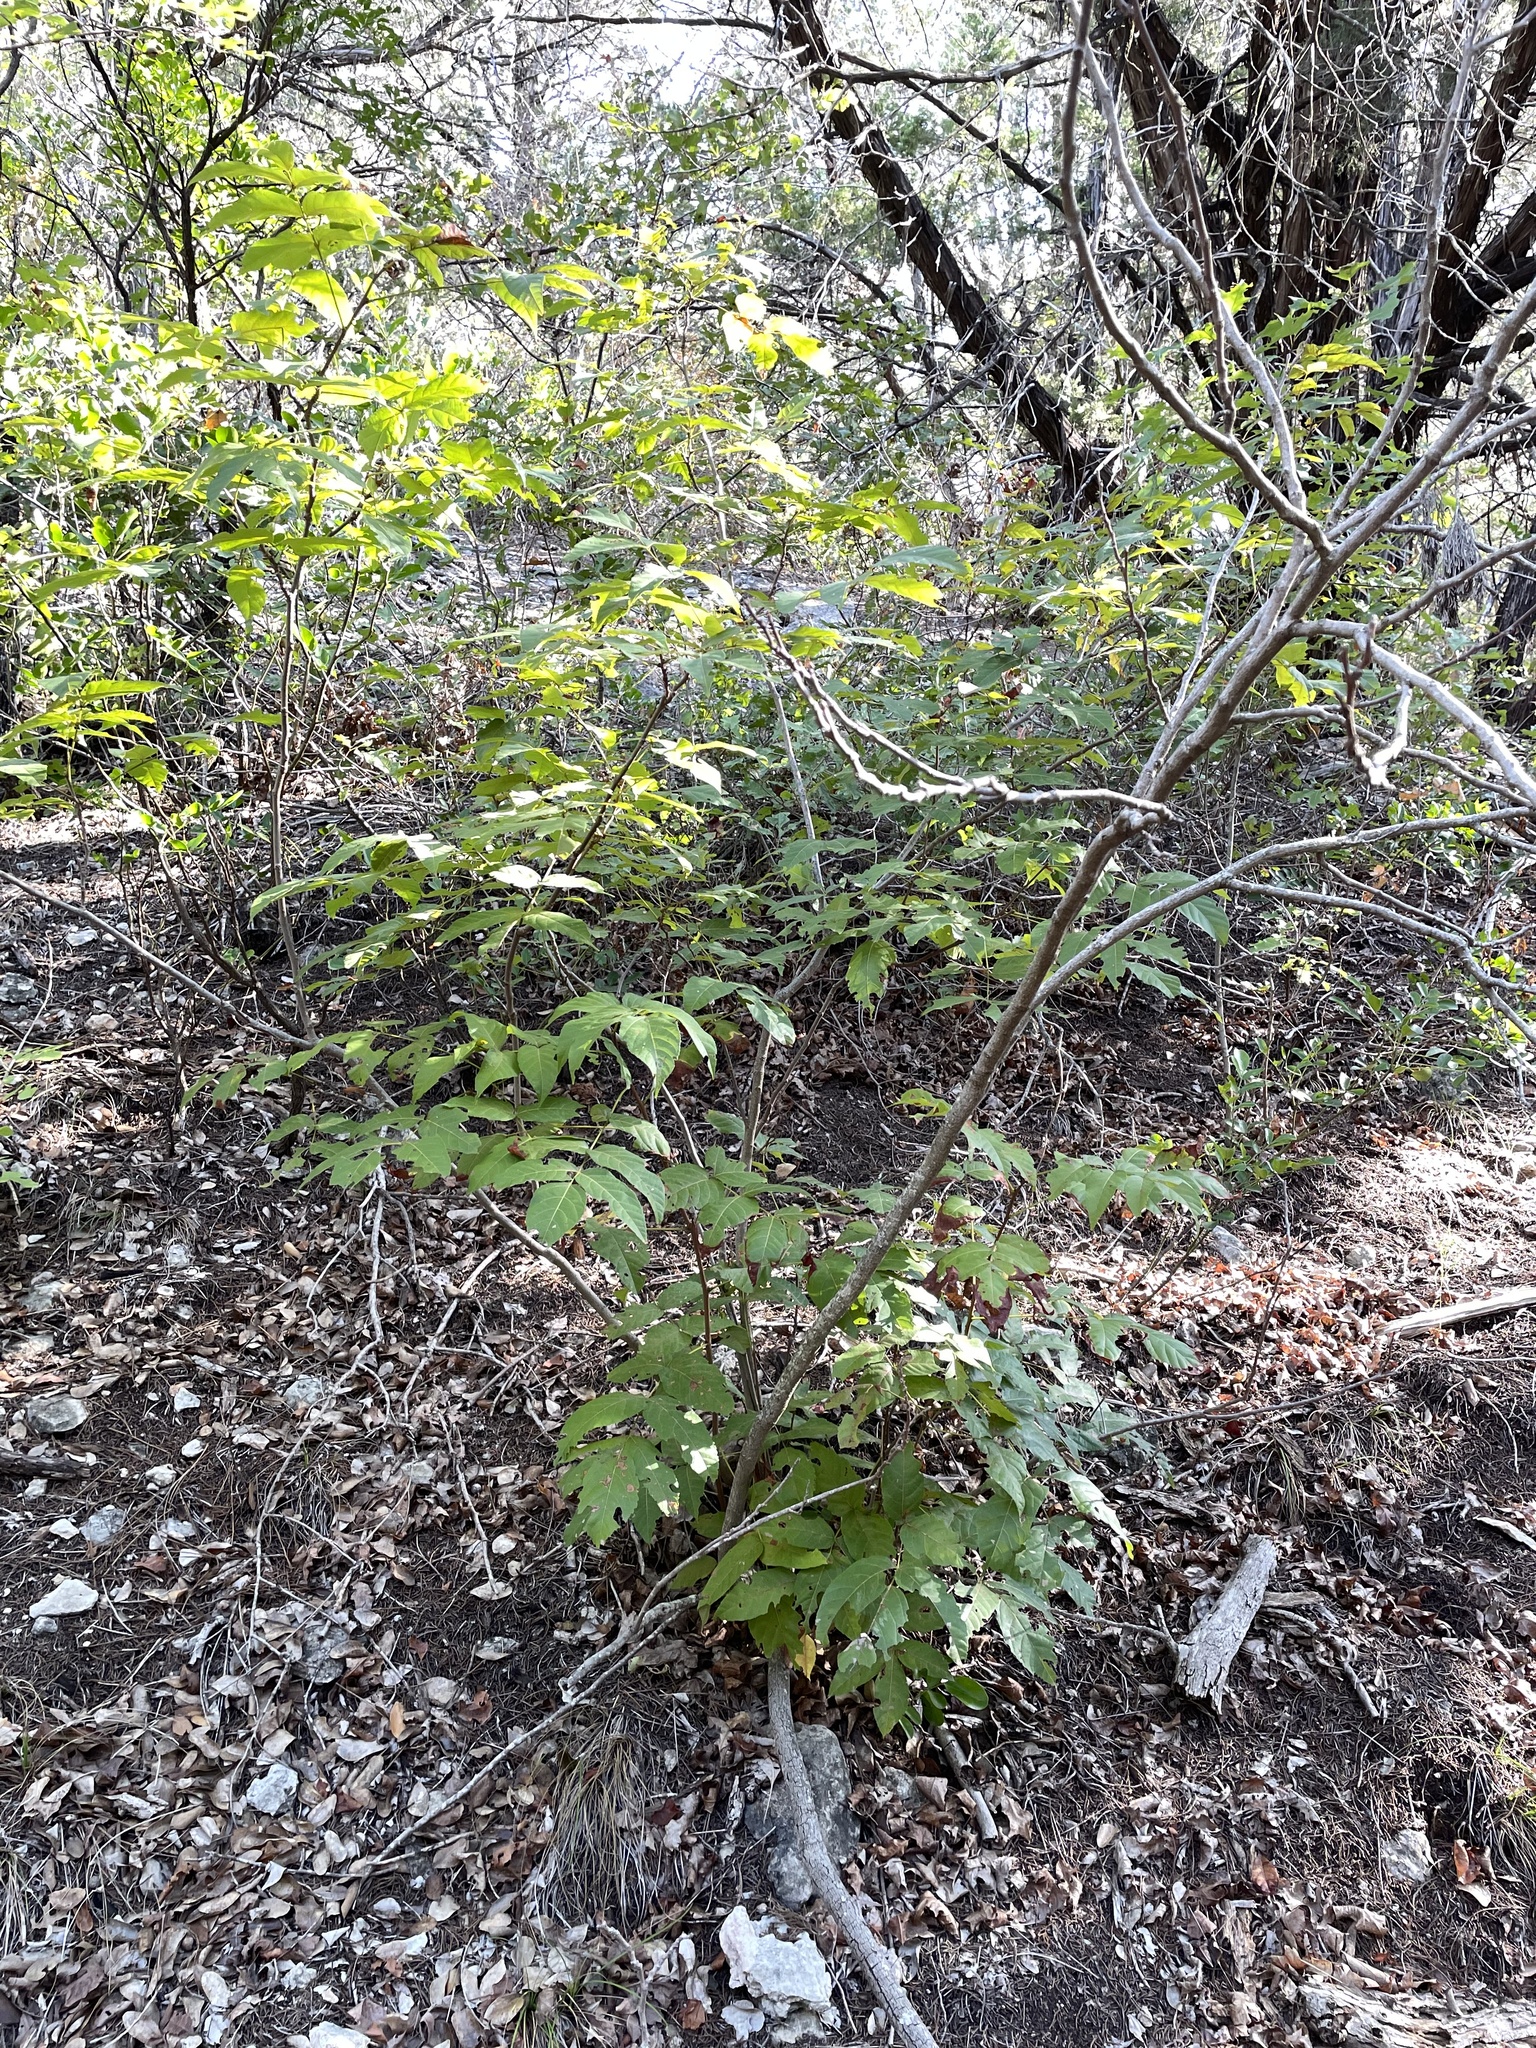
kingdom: Plantae
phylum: Tracheophyta
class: Magnoliopsida
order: Sapindales
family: Sapindaceae
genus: Ungnadia
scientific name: Ungnadia speciosa
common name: Texas-buckeye
